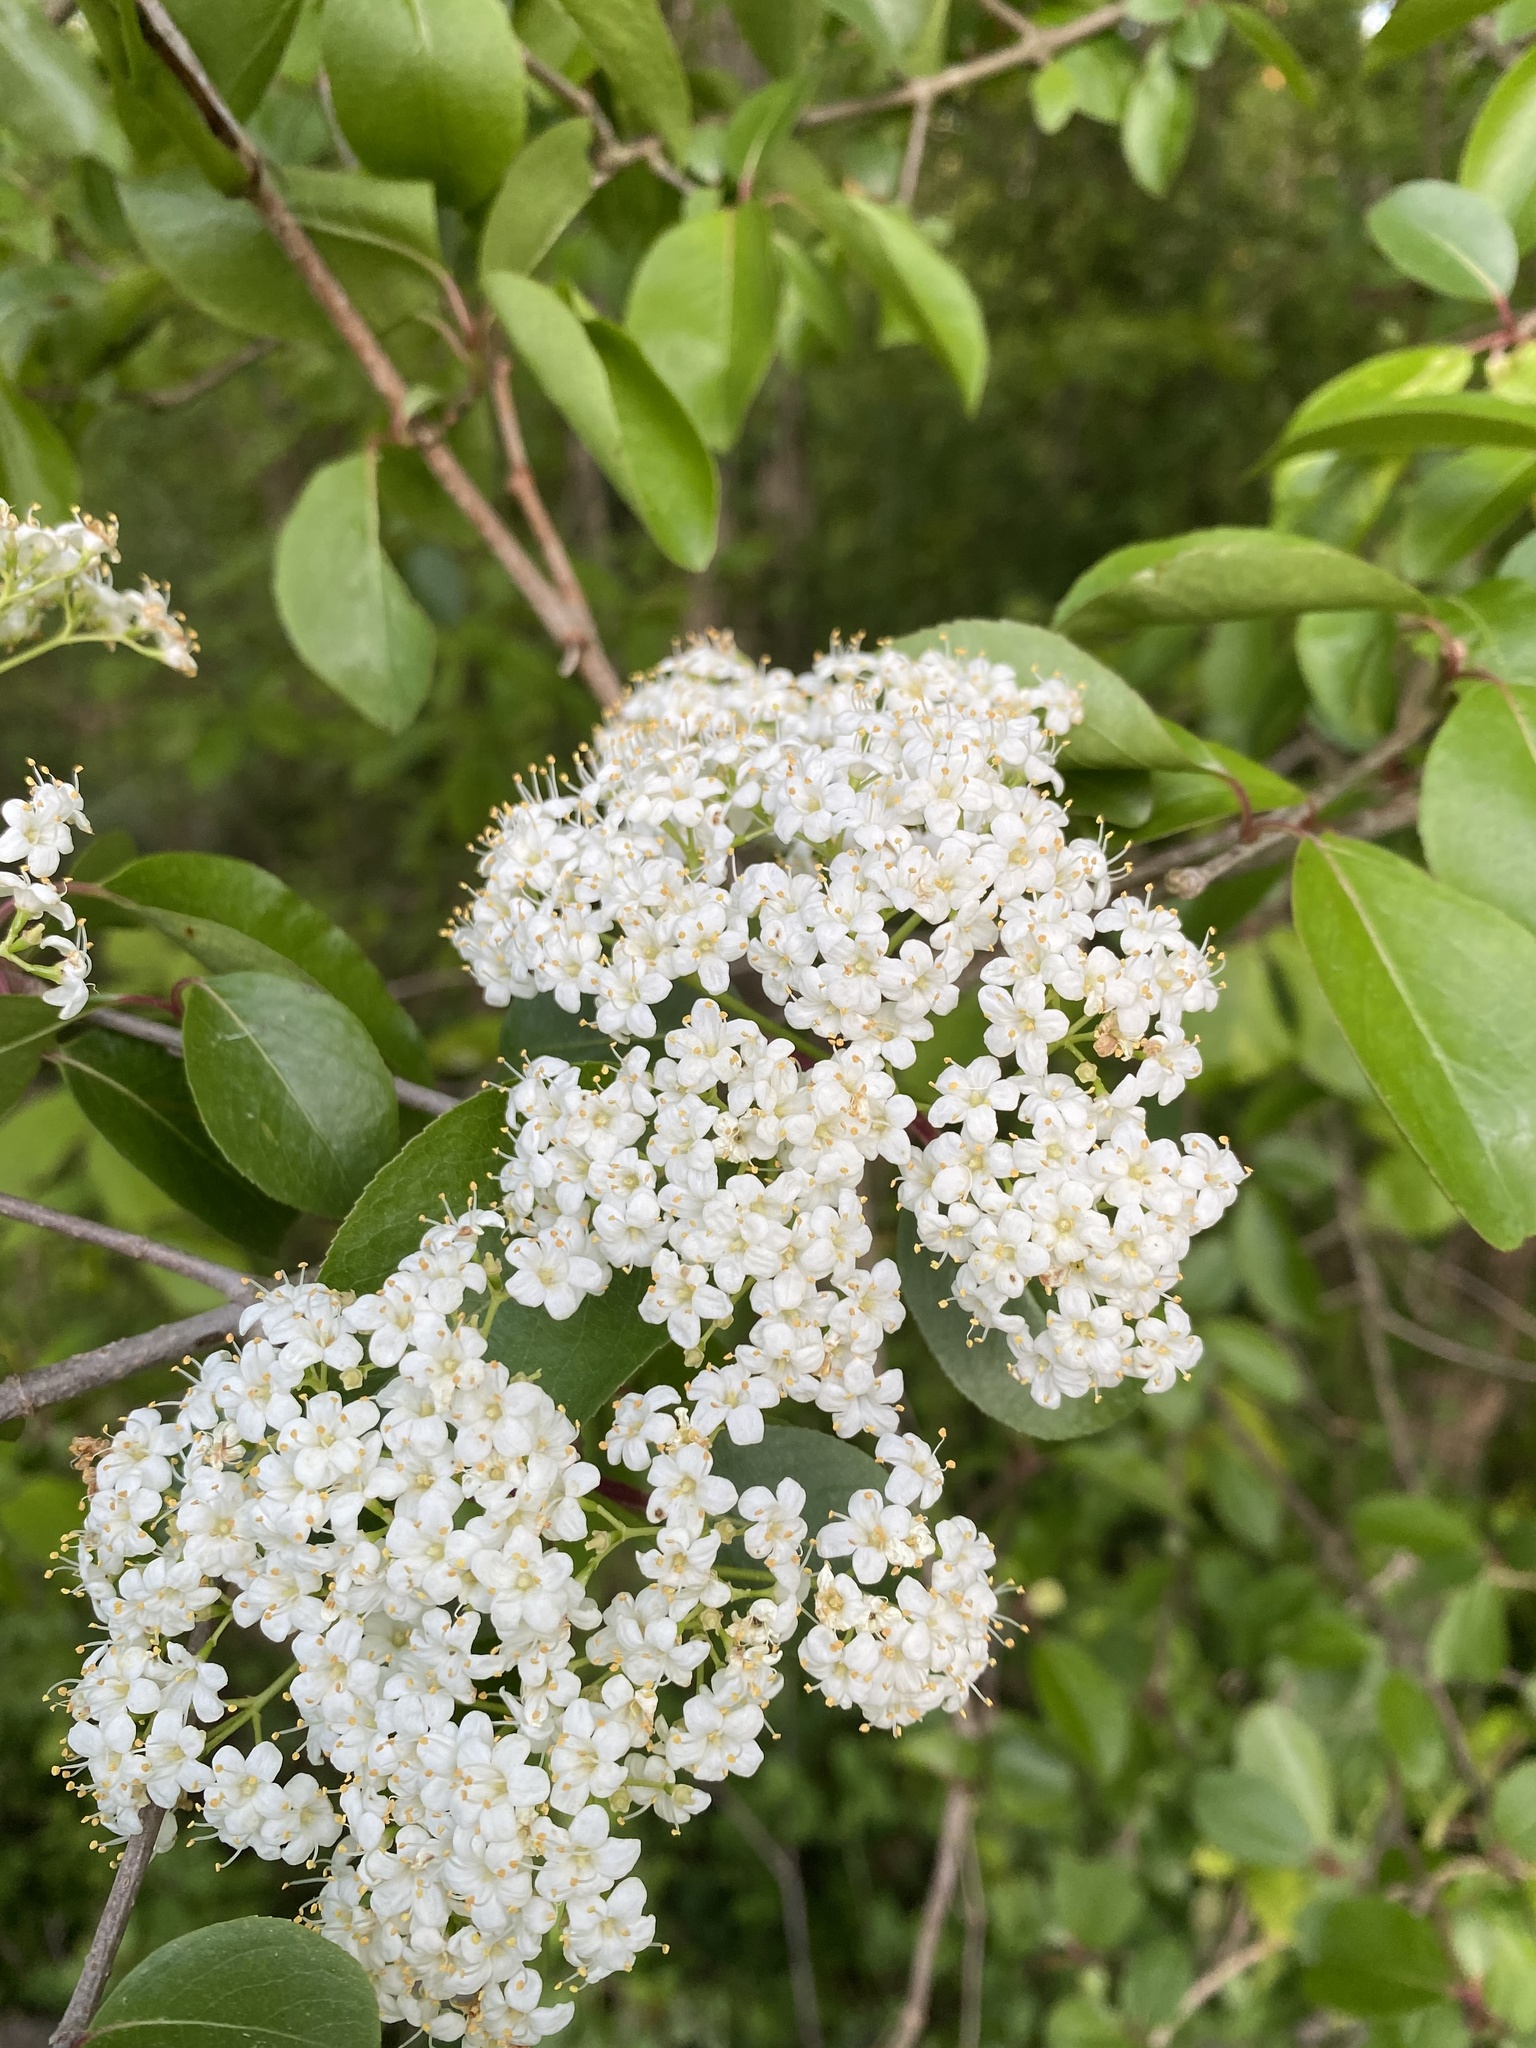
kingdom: Plantae
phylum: Tracheophyta
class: Magnoliopsida
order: Dipsacales
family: Viburnaceae
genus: Viburnum
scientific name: Viburnum prunifolium
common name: Black haw
